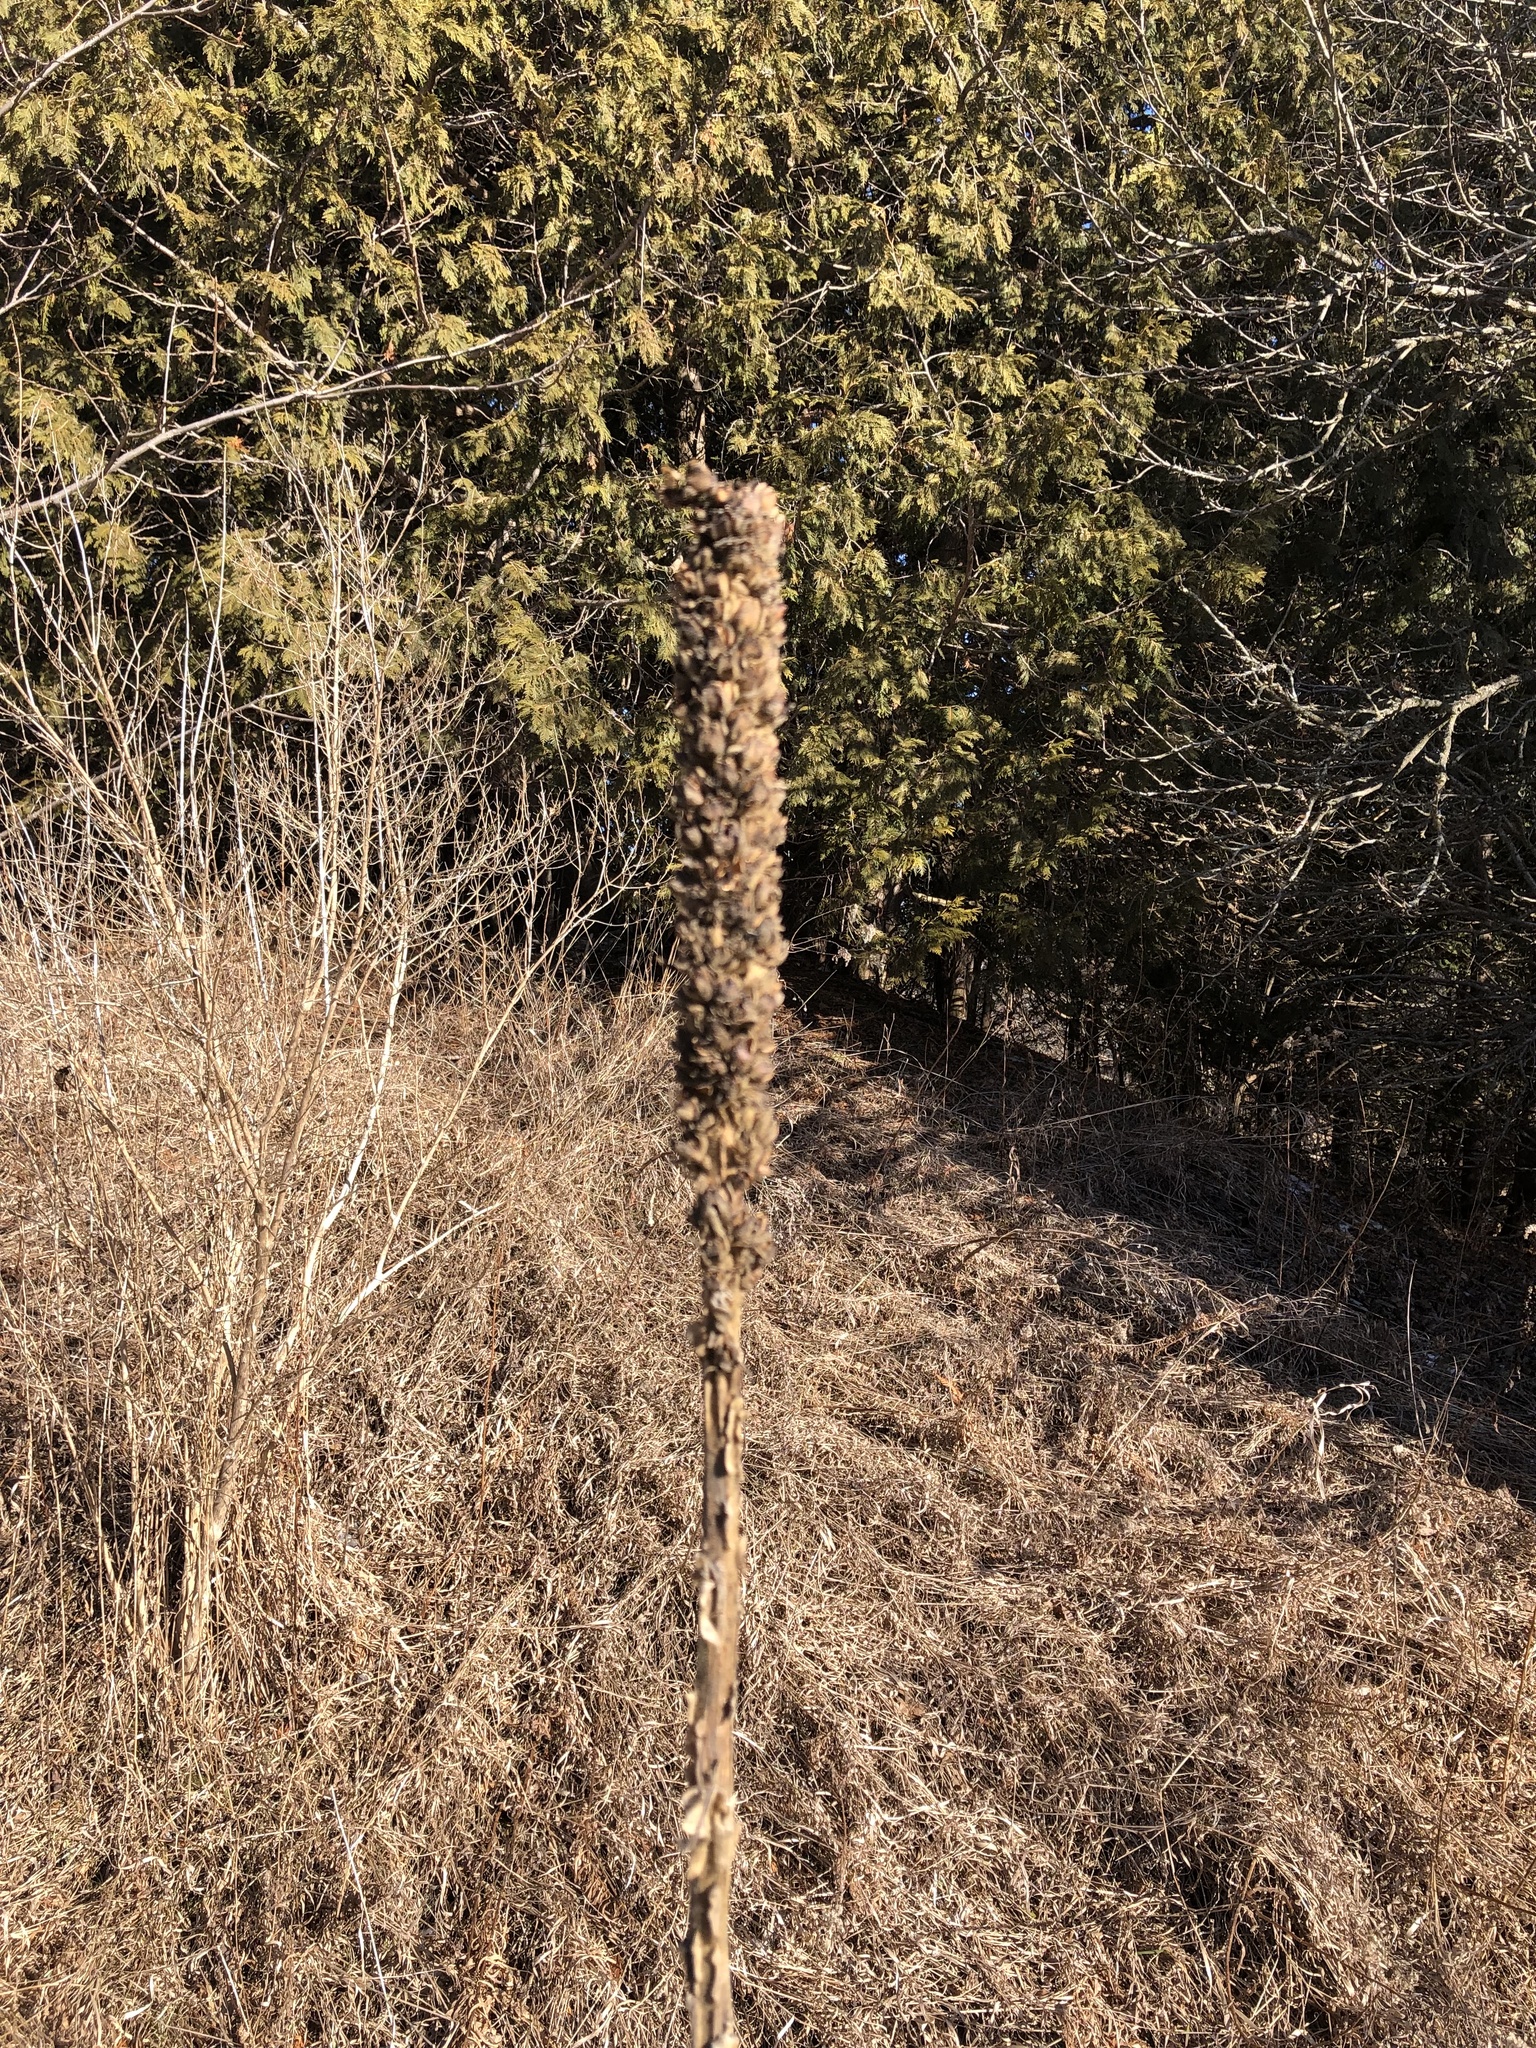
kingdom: Plantae
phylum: Tracheophyta
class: Magnoliopsida
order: Lamiales
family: Scrophulariaceae
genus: Verbascum
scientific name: Verbascum thapsus
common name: Common mullein
